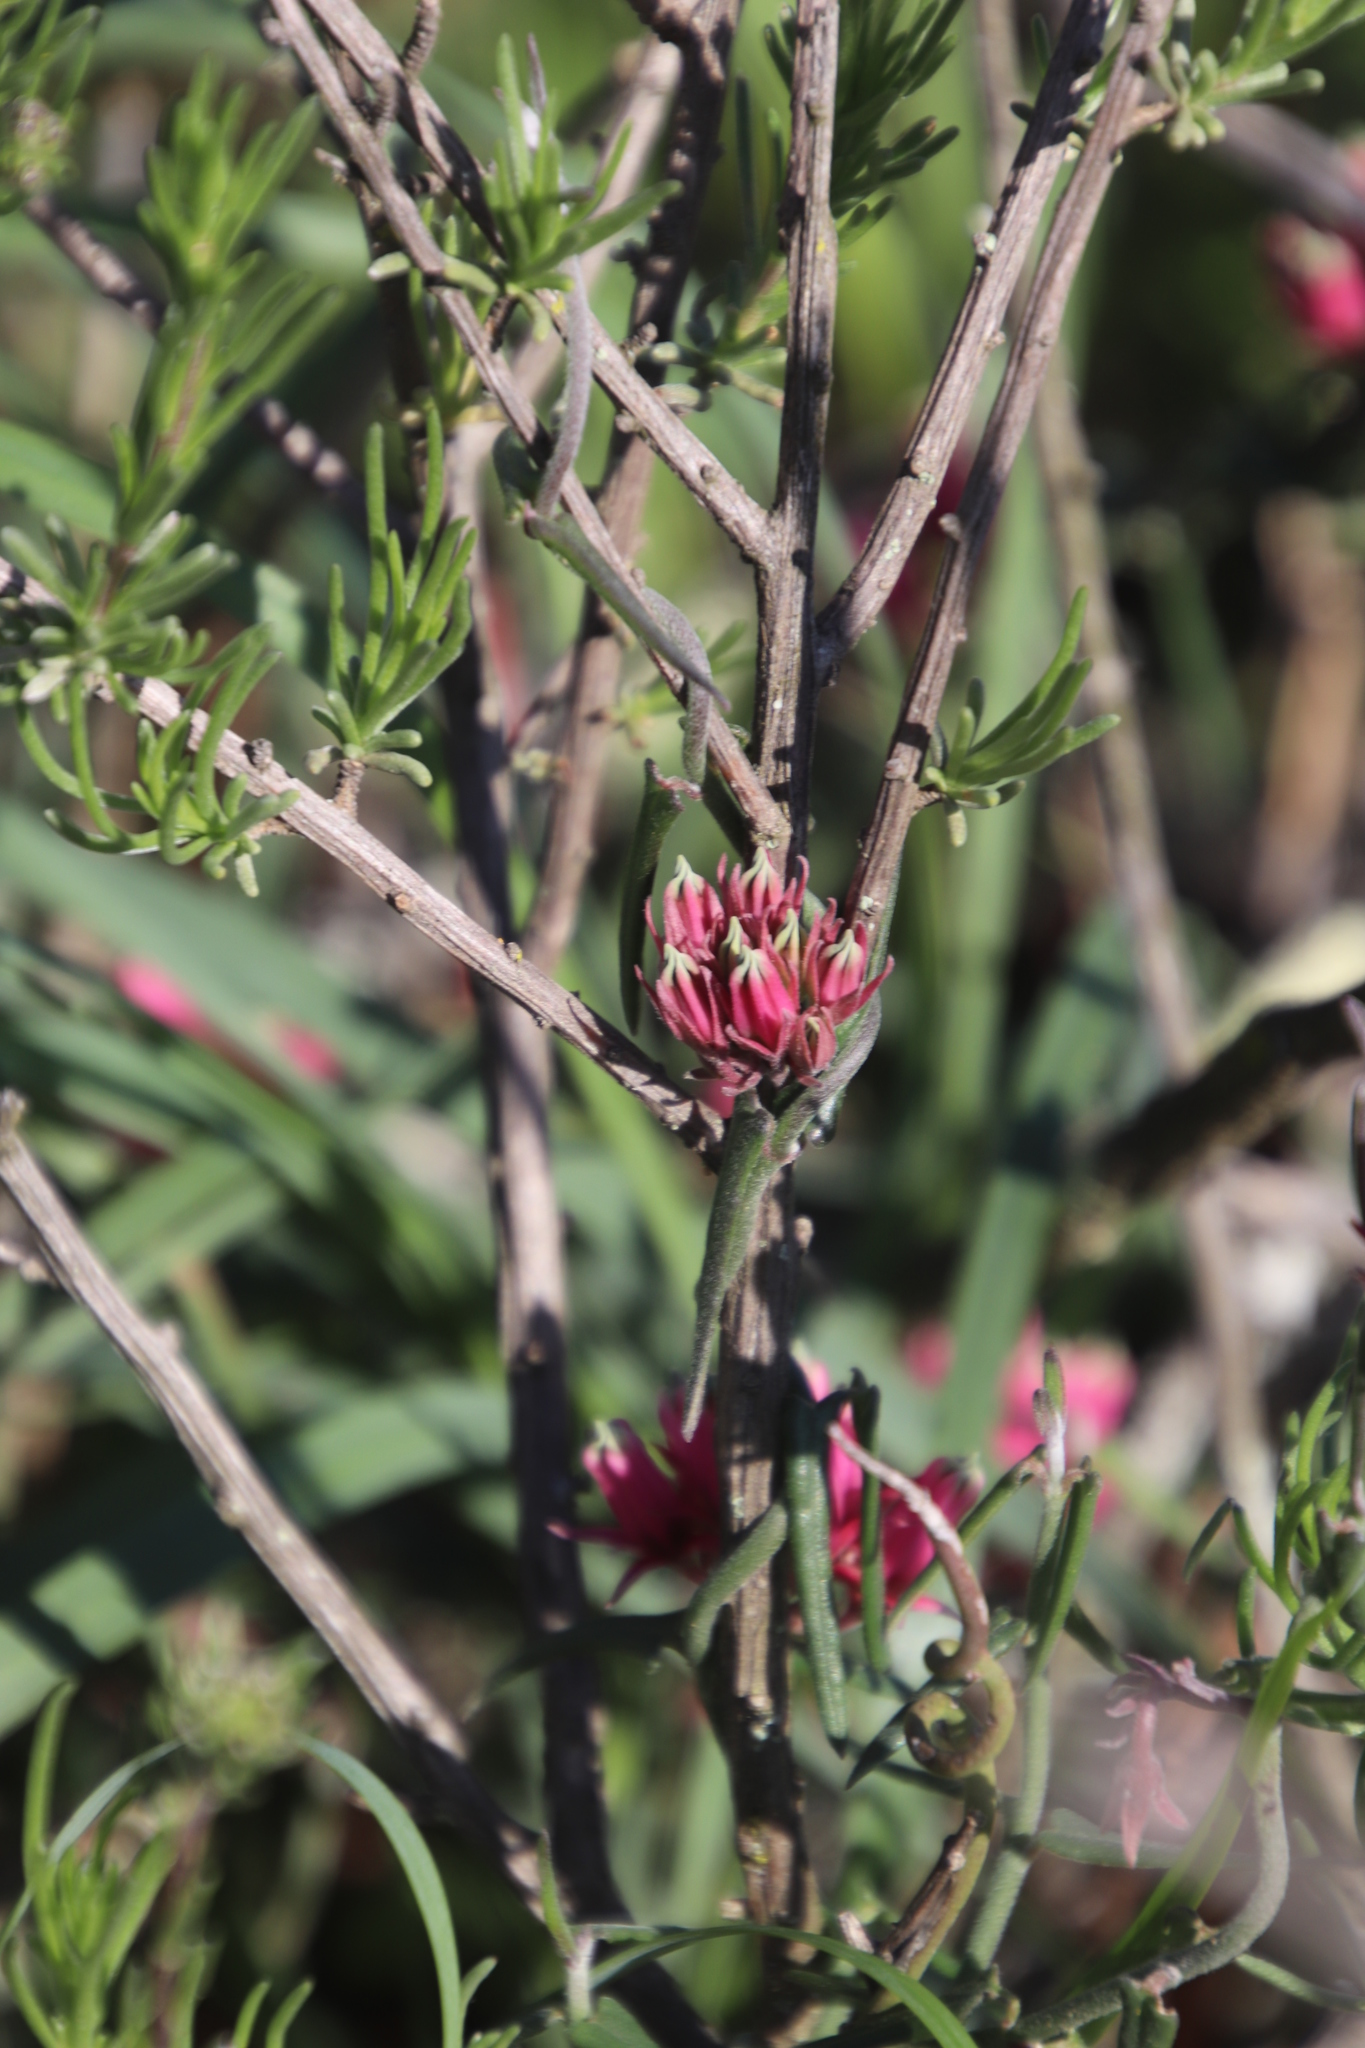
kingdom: Plantae
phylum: Tracheophyta
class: Magnoliopsida
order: Gentianales
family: Apocynaceae
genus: Microloma
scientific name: Microloma sagittatum
